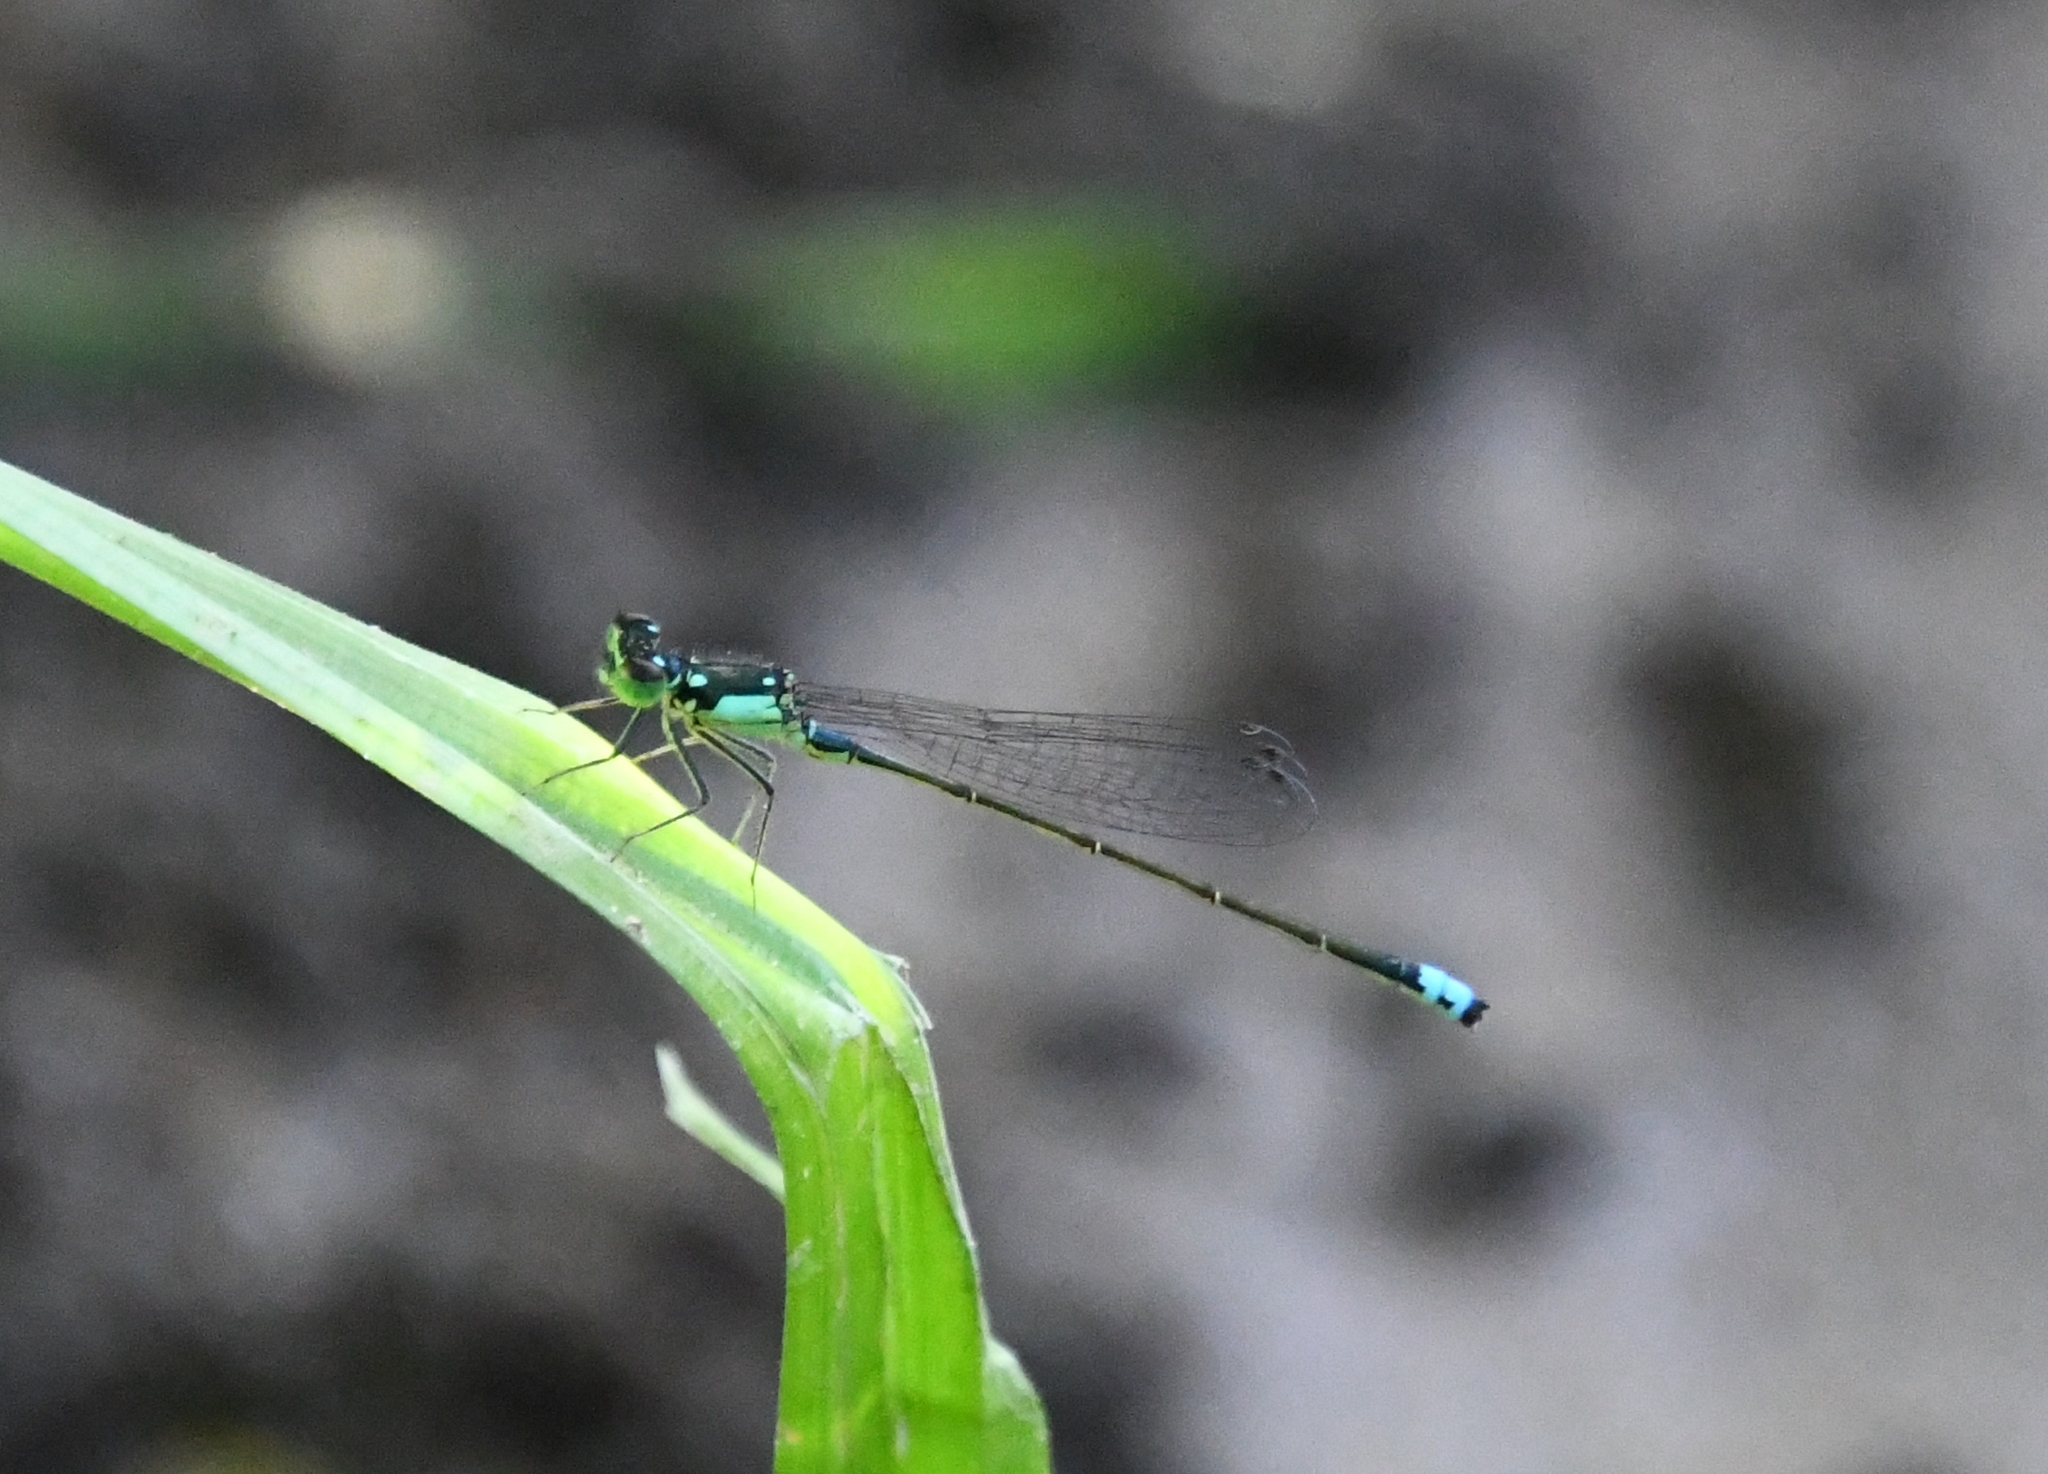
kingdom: Animalia
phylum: Arthropoda
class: Insecta
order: Odonata
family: Coenagrionidae
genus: Ischnura
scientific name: Ischnura cervula
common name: Pacific forktail
